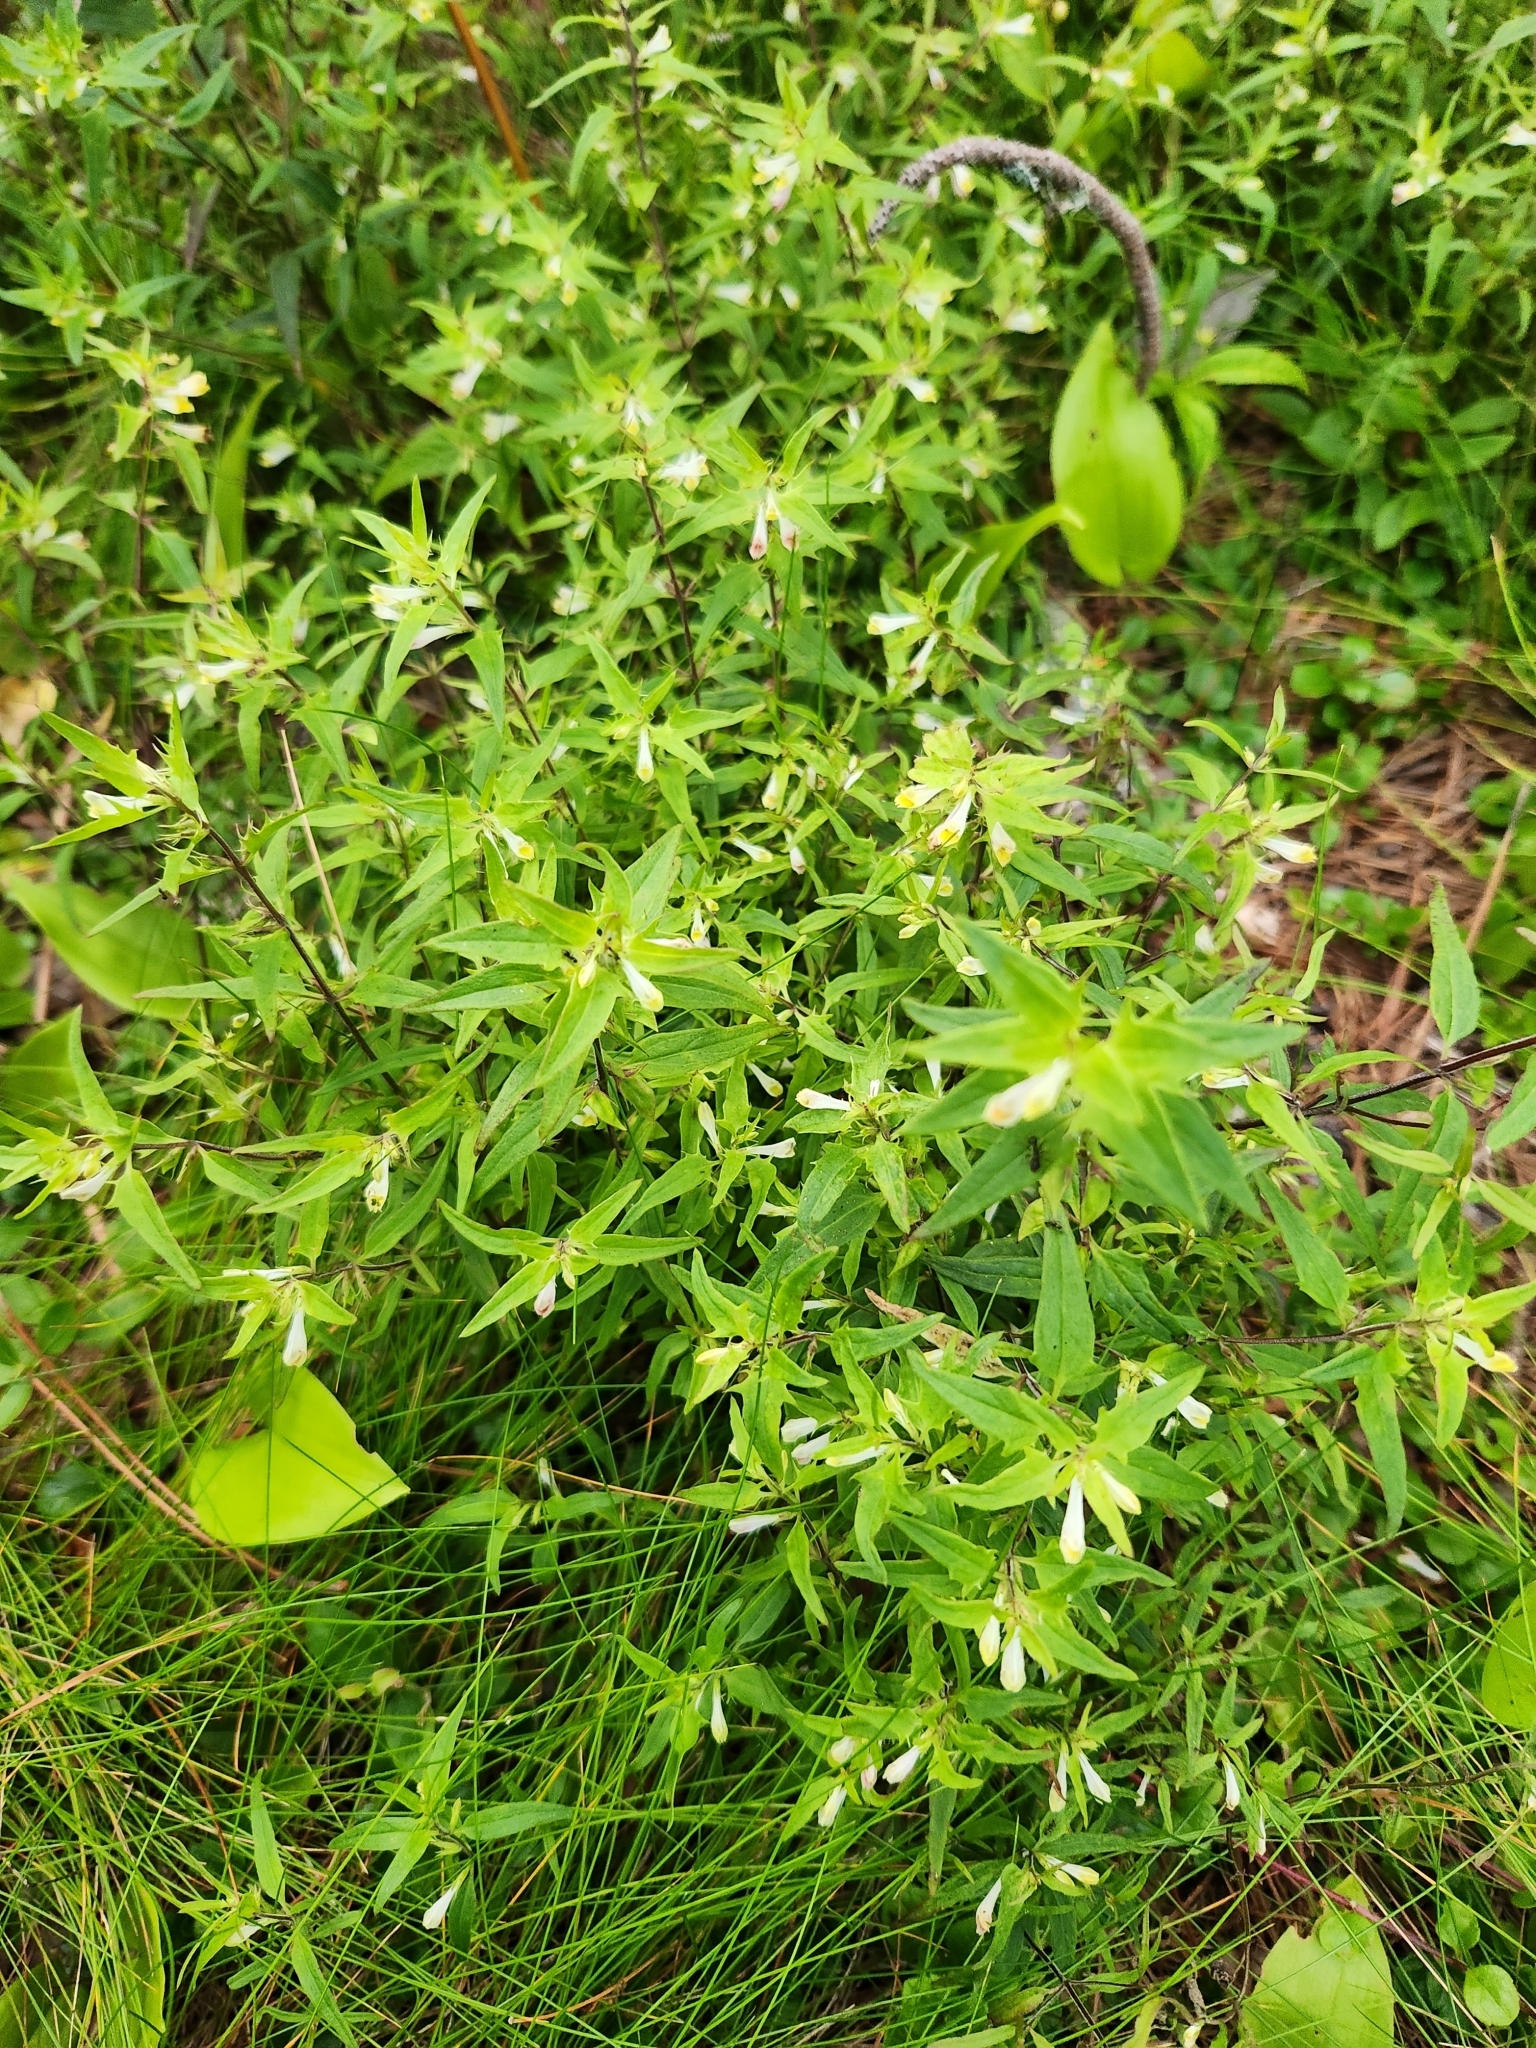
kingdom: Plantae
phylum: Tracheophyta
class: Magnoliopsida
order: Lamiales
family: Orobanchaceae
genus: Melampyrum
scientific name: Melampyrum lineare
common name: American cow-wheat
